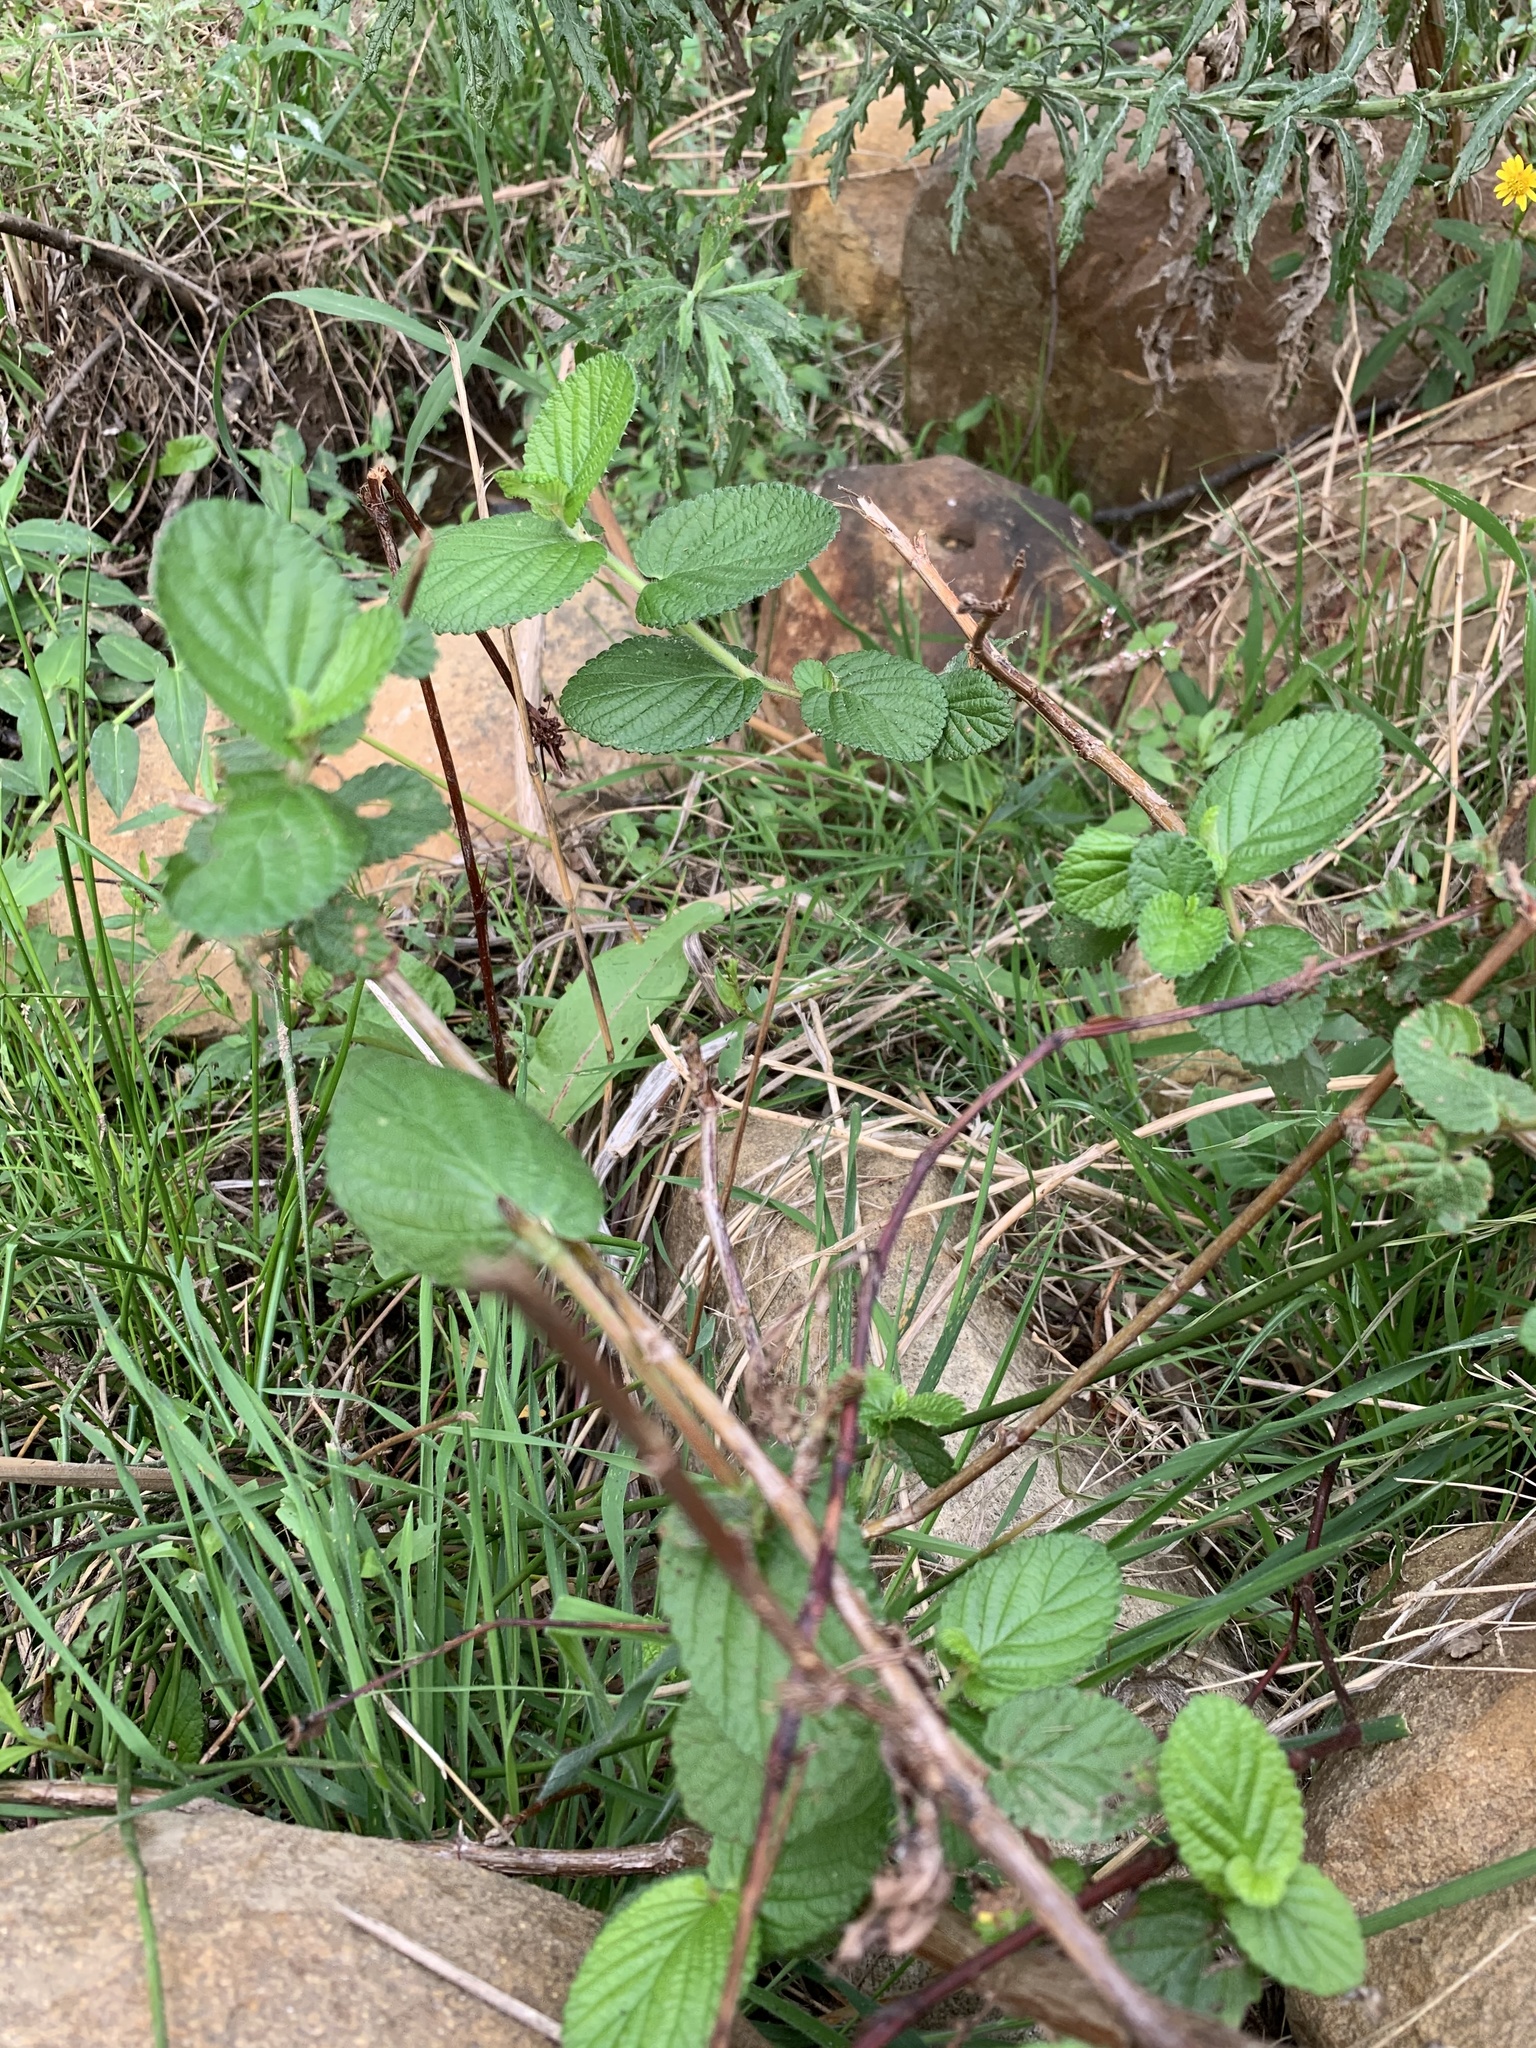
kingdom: Plantae
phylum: Tracheophyta
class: Magnoliopsida
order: Rosales
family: Rosaceae
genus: Cliffortia
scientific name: Cliffortia odorata
